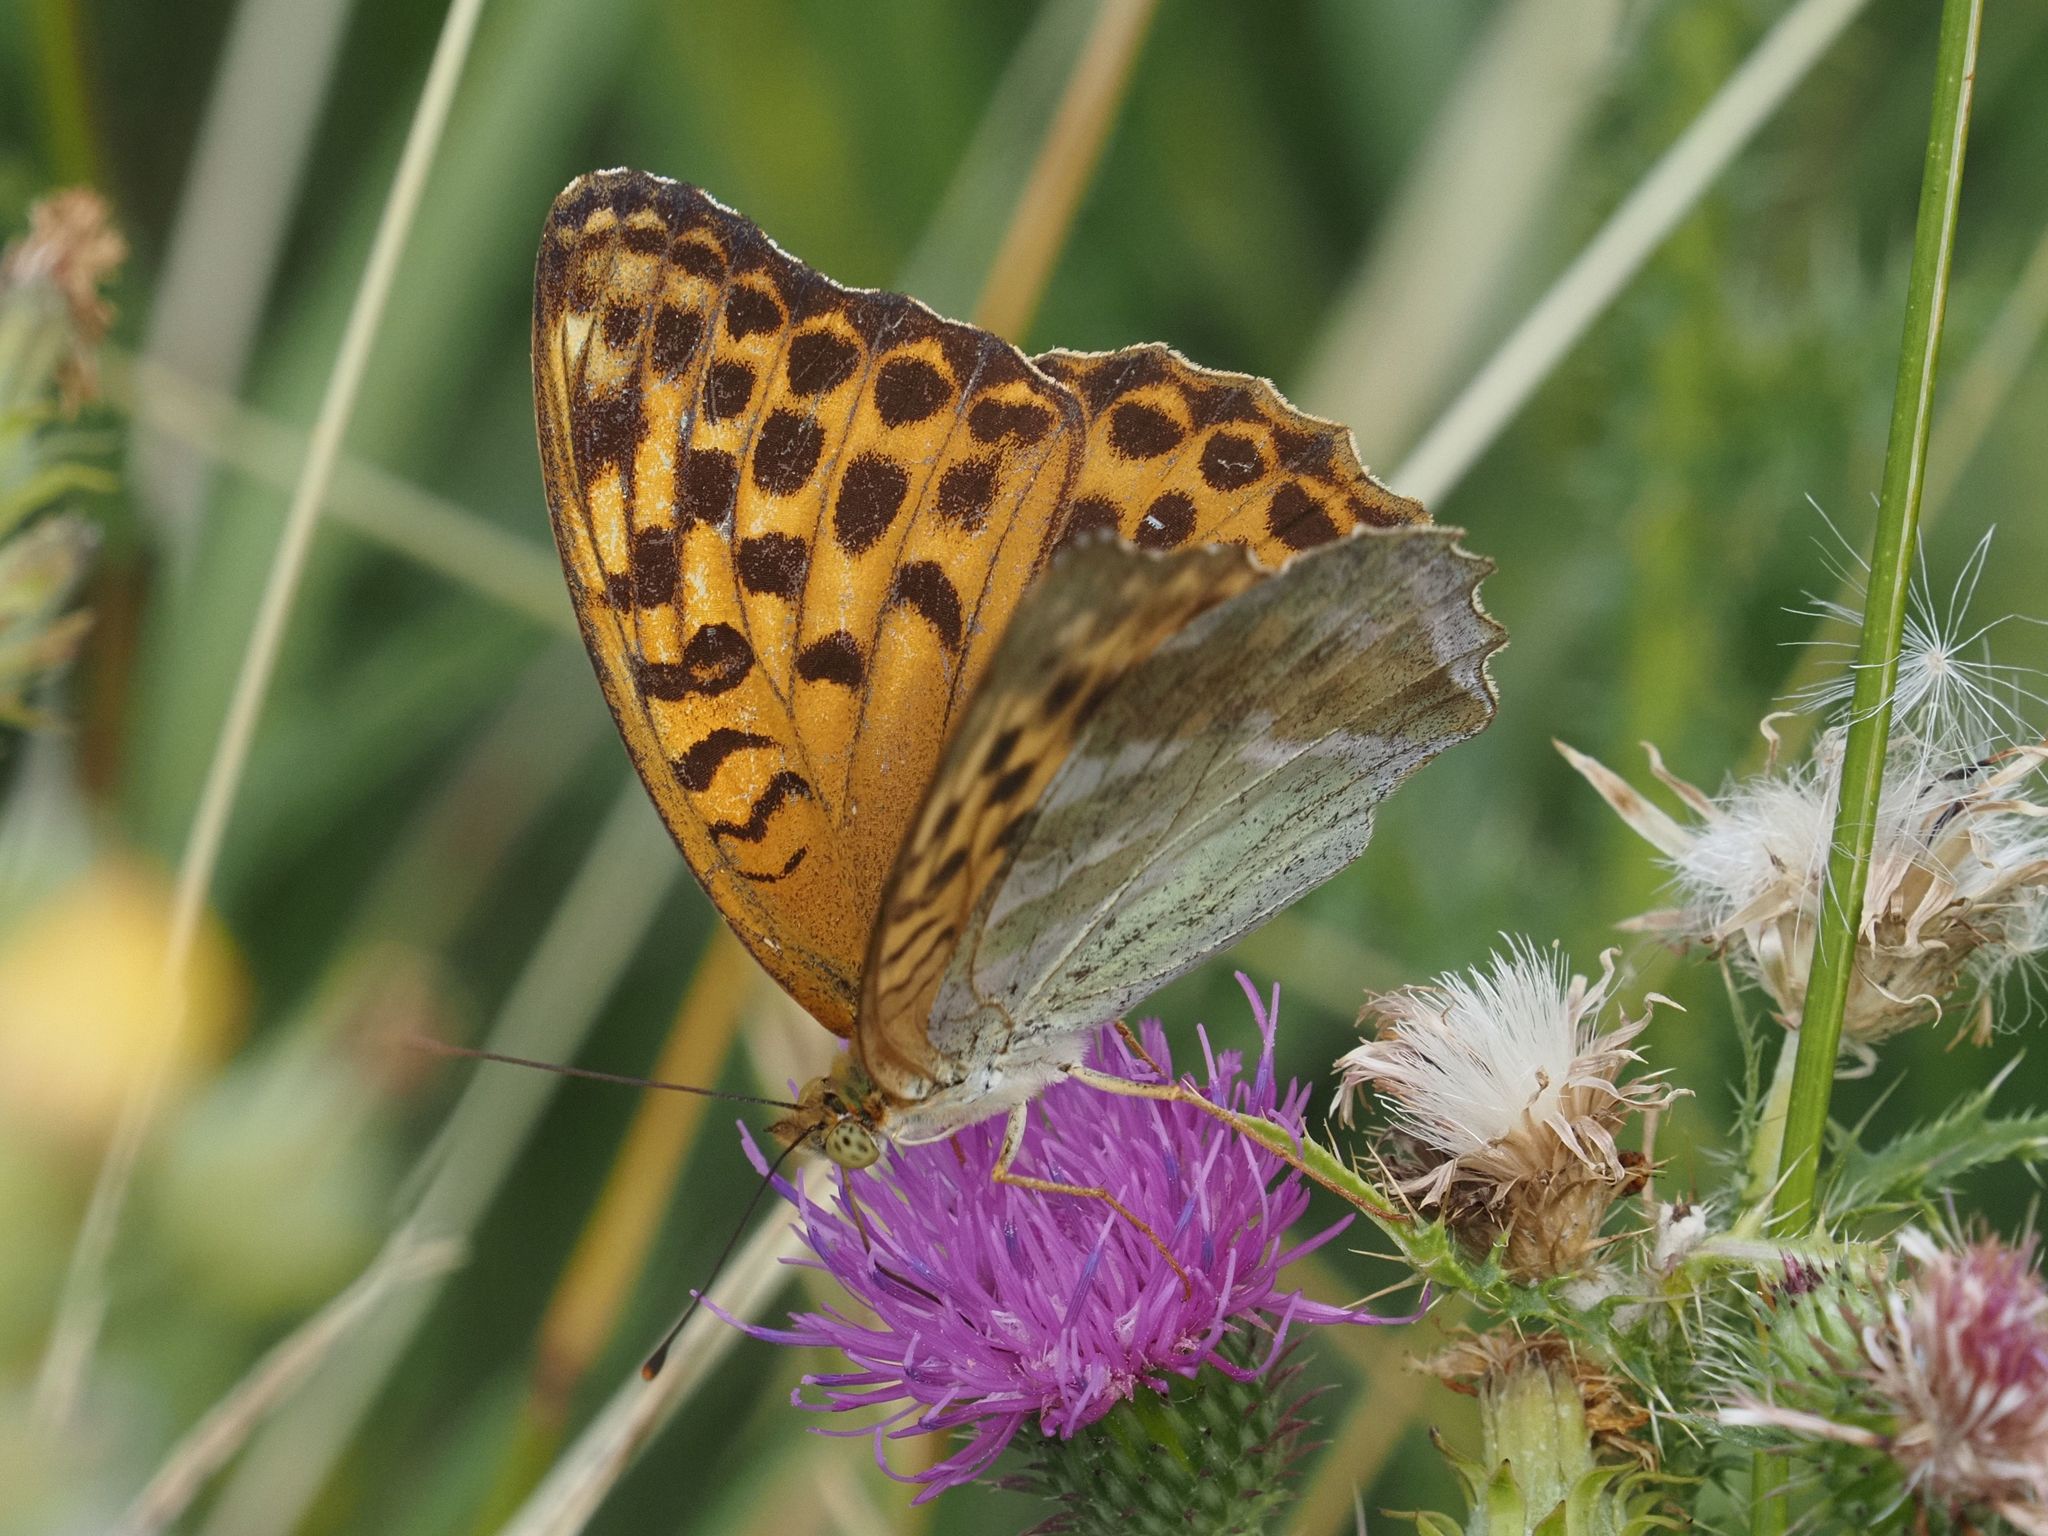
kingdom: Animalia
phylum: Arthropoda
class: Insecta
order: Lepidoptera
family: Nymphalidae
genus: Argynnis
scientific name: Argynnis paphia
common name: Silver-washed fritillary
